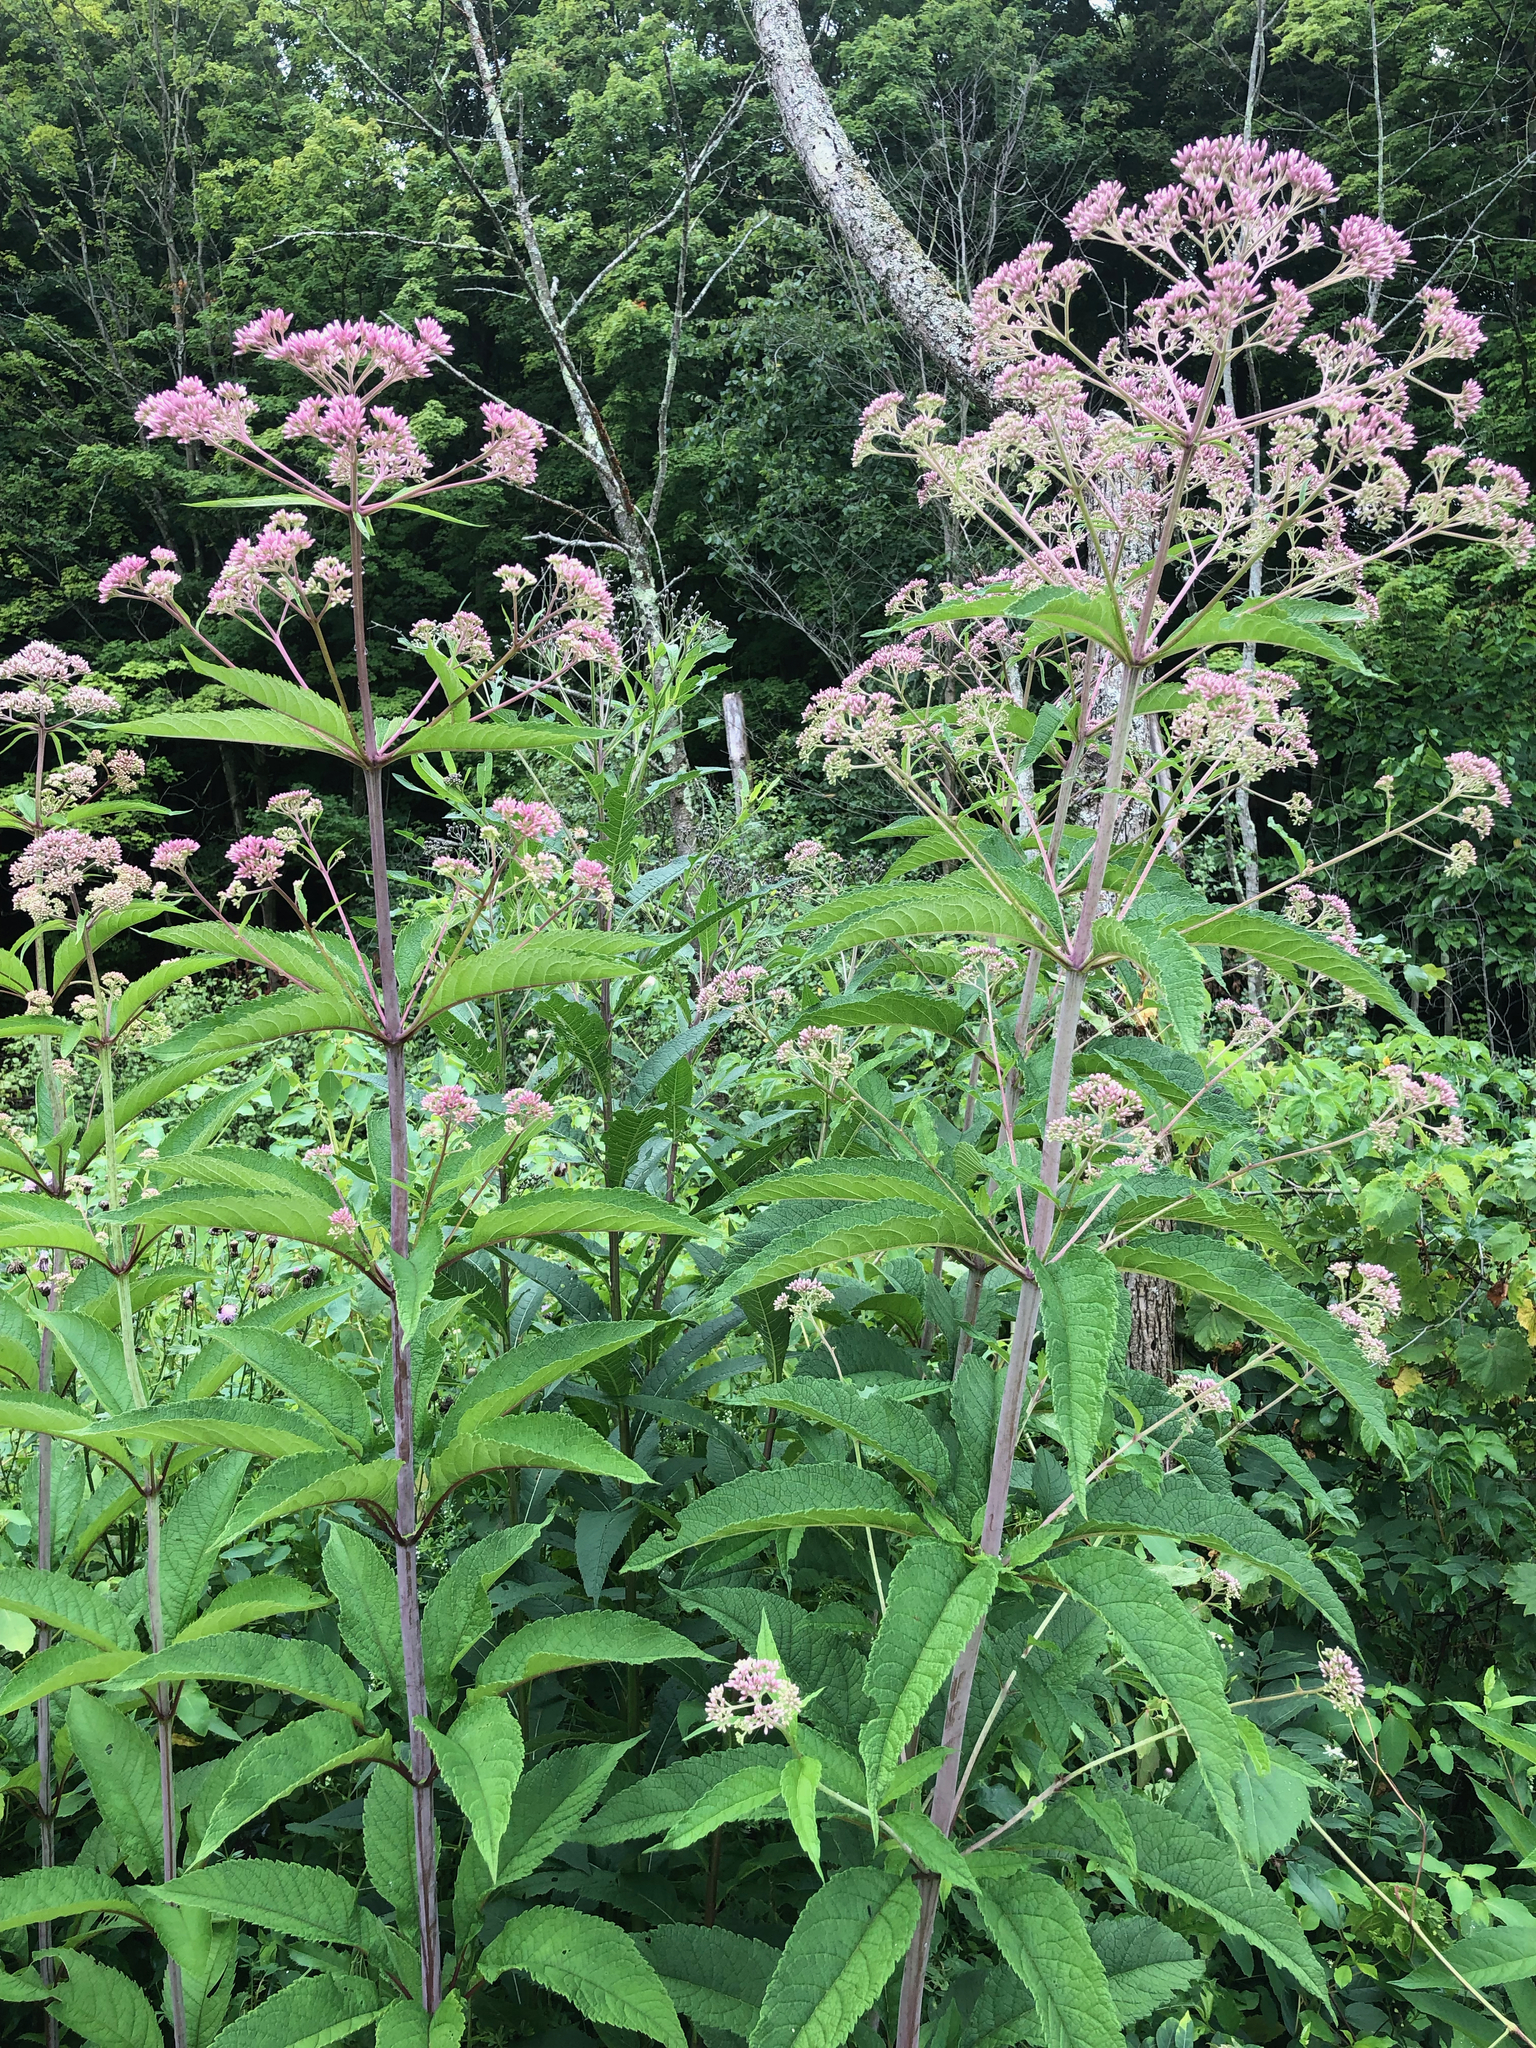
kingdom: Plantae
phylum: Tracheophyta
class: Magnoliopsida
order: Asterales
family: Asteraceae
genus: Eutrochium
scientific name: Eutrochium fistulosum
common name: Trumpetweed
